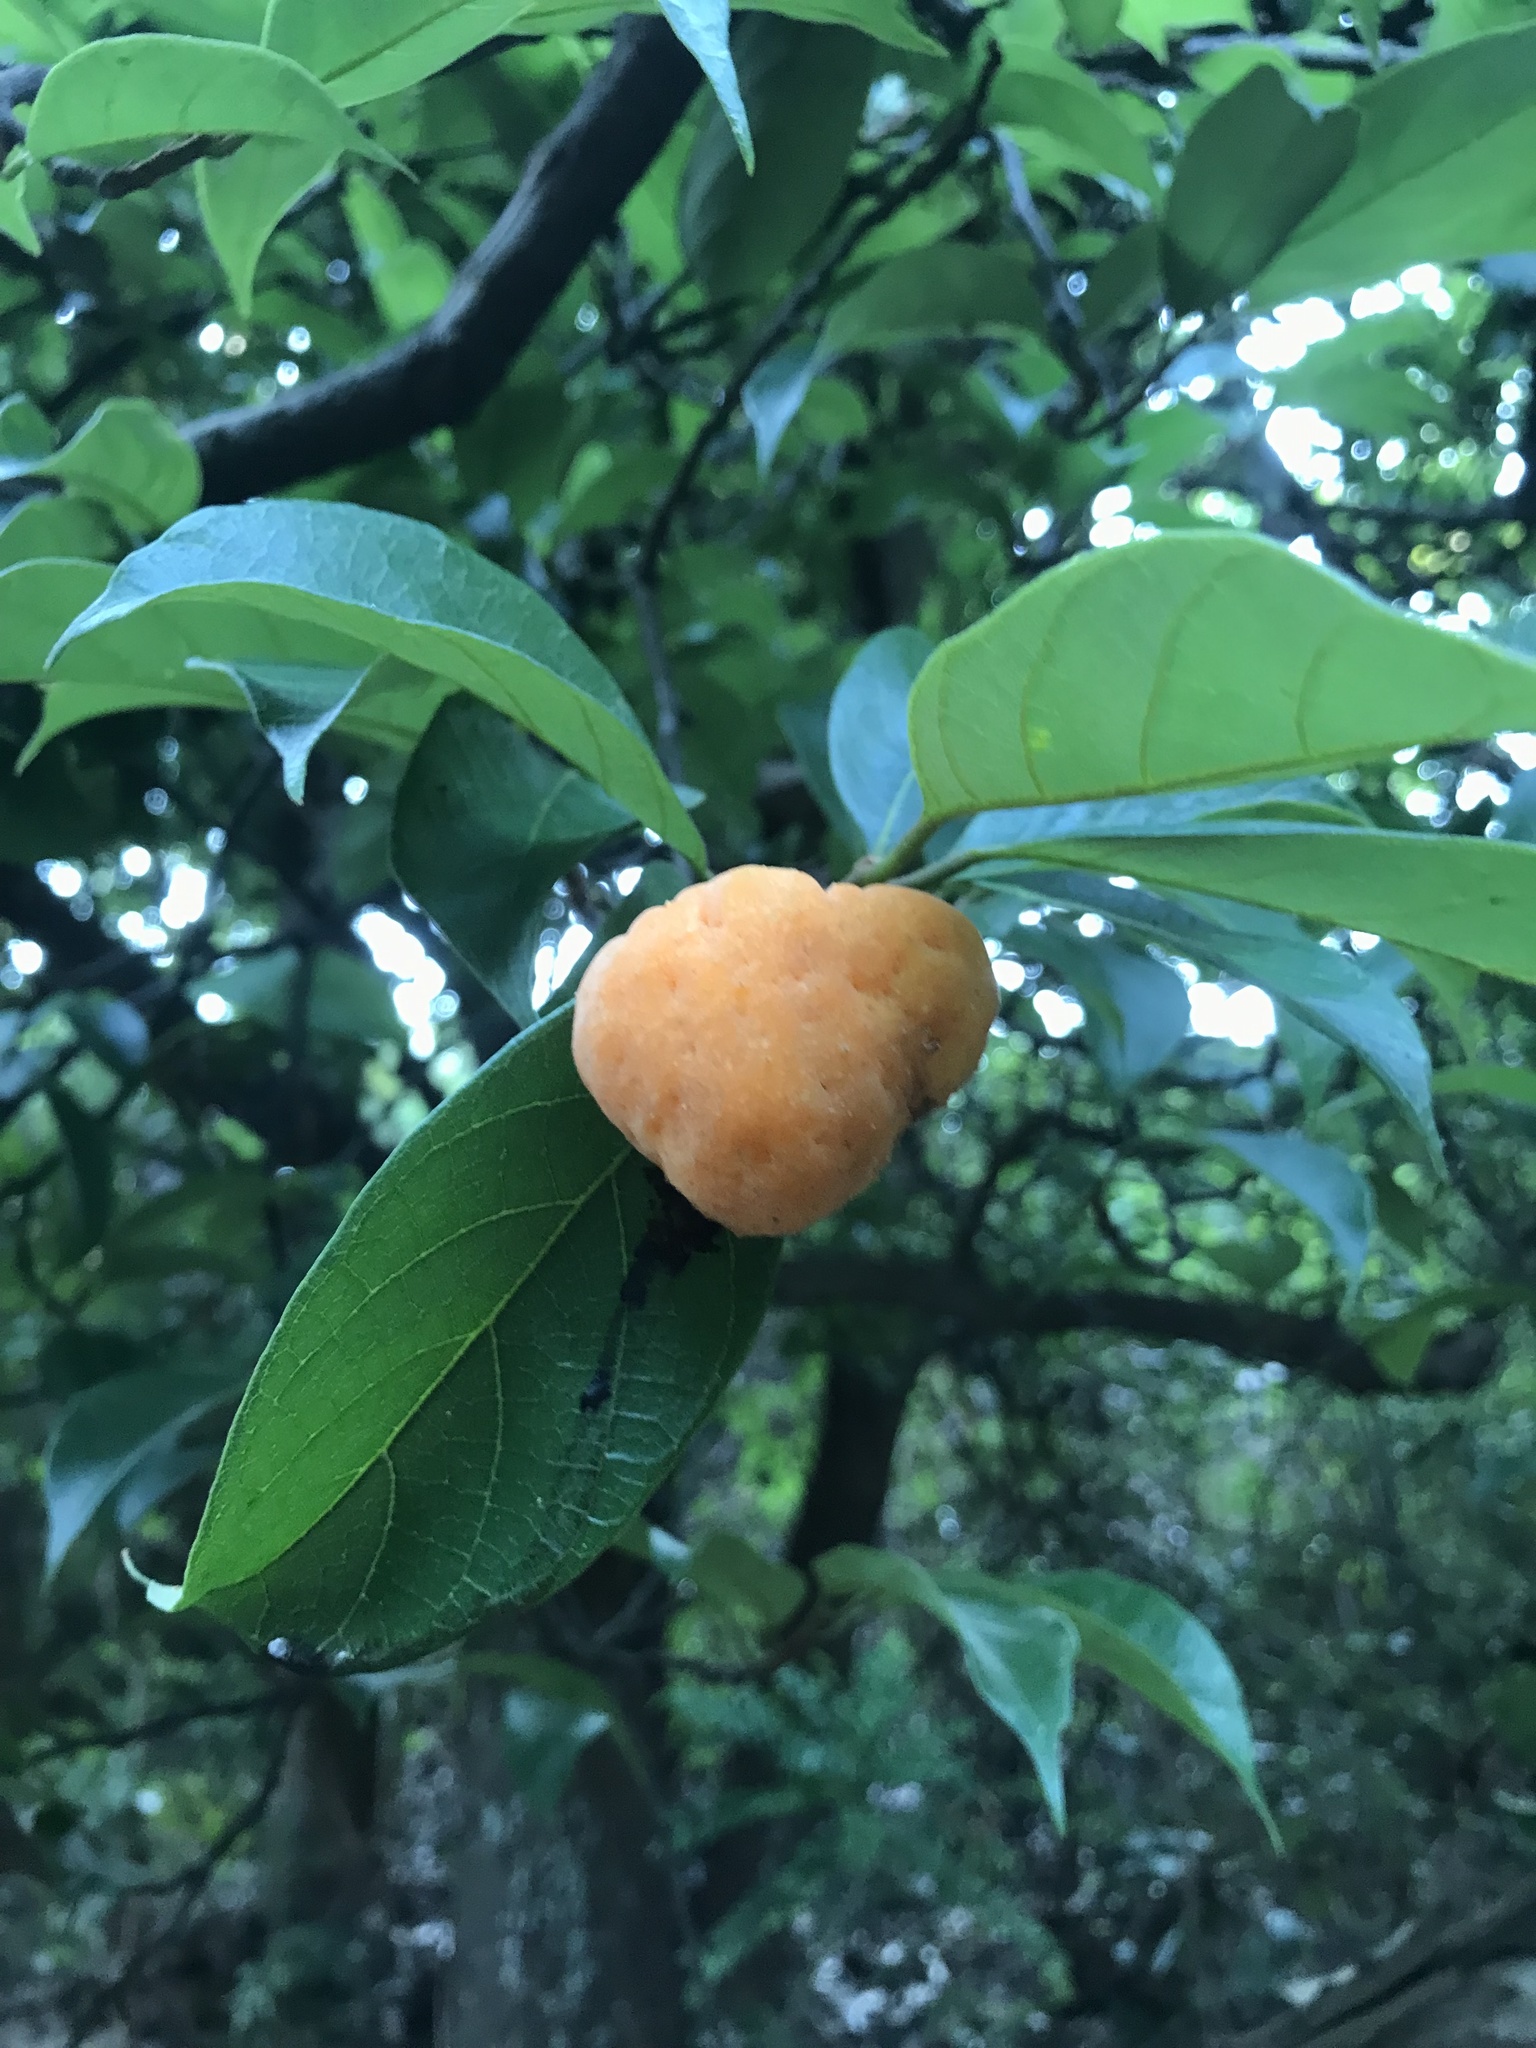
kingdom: Plantae
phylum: Tracheophyta
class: Magnoliopsida
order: Rosales
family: Moraceae
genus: Artocarpus
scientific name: Artocarpus hypargyreus
